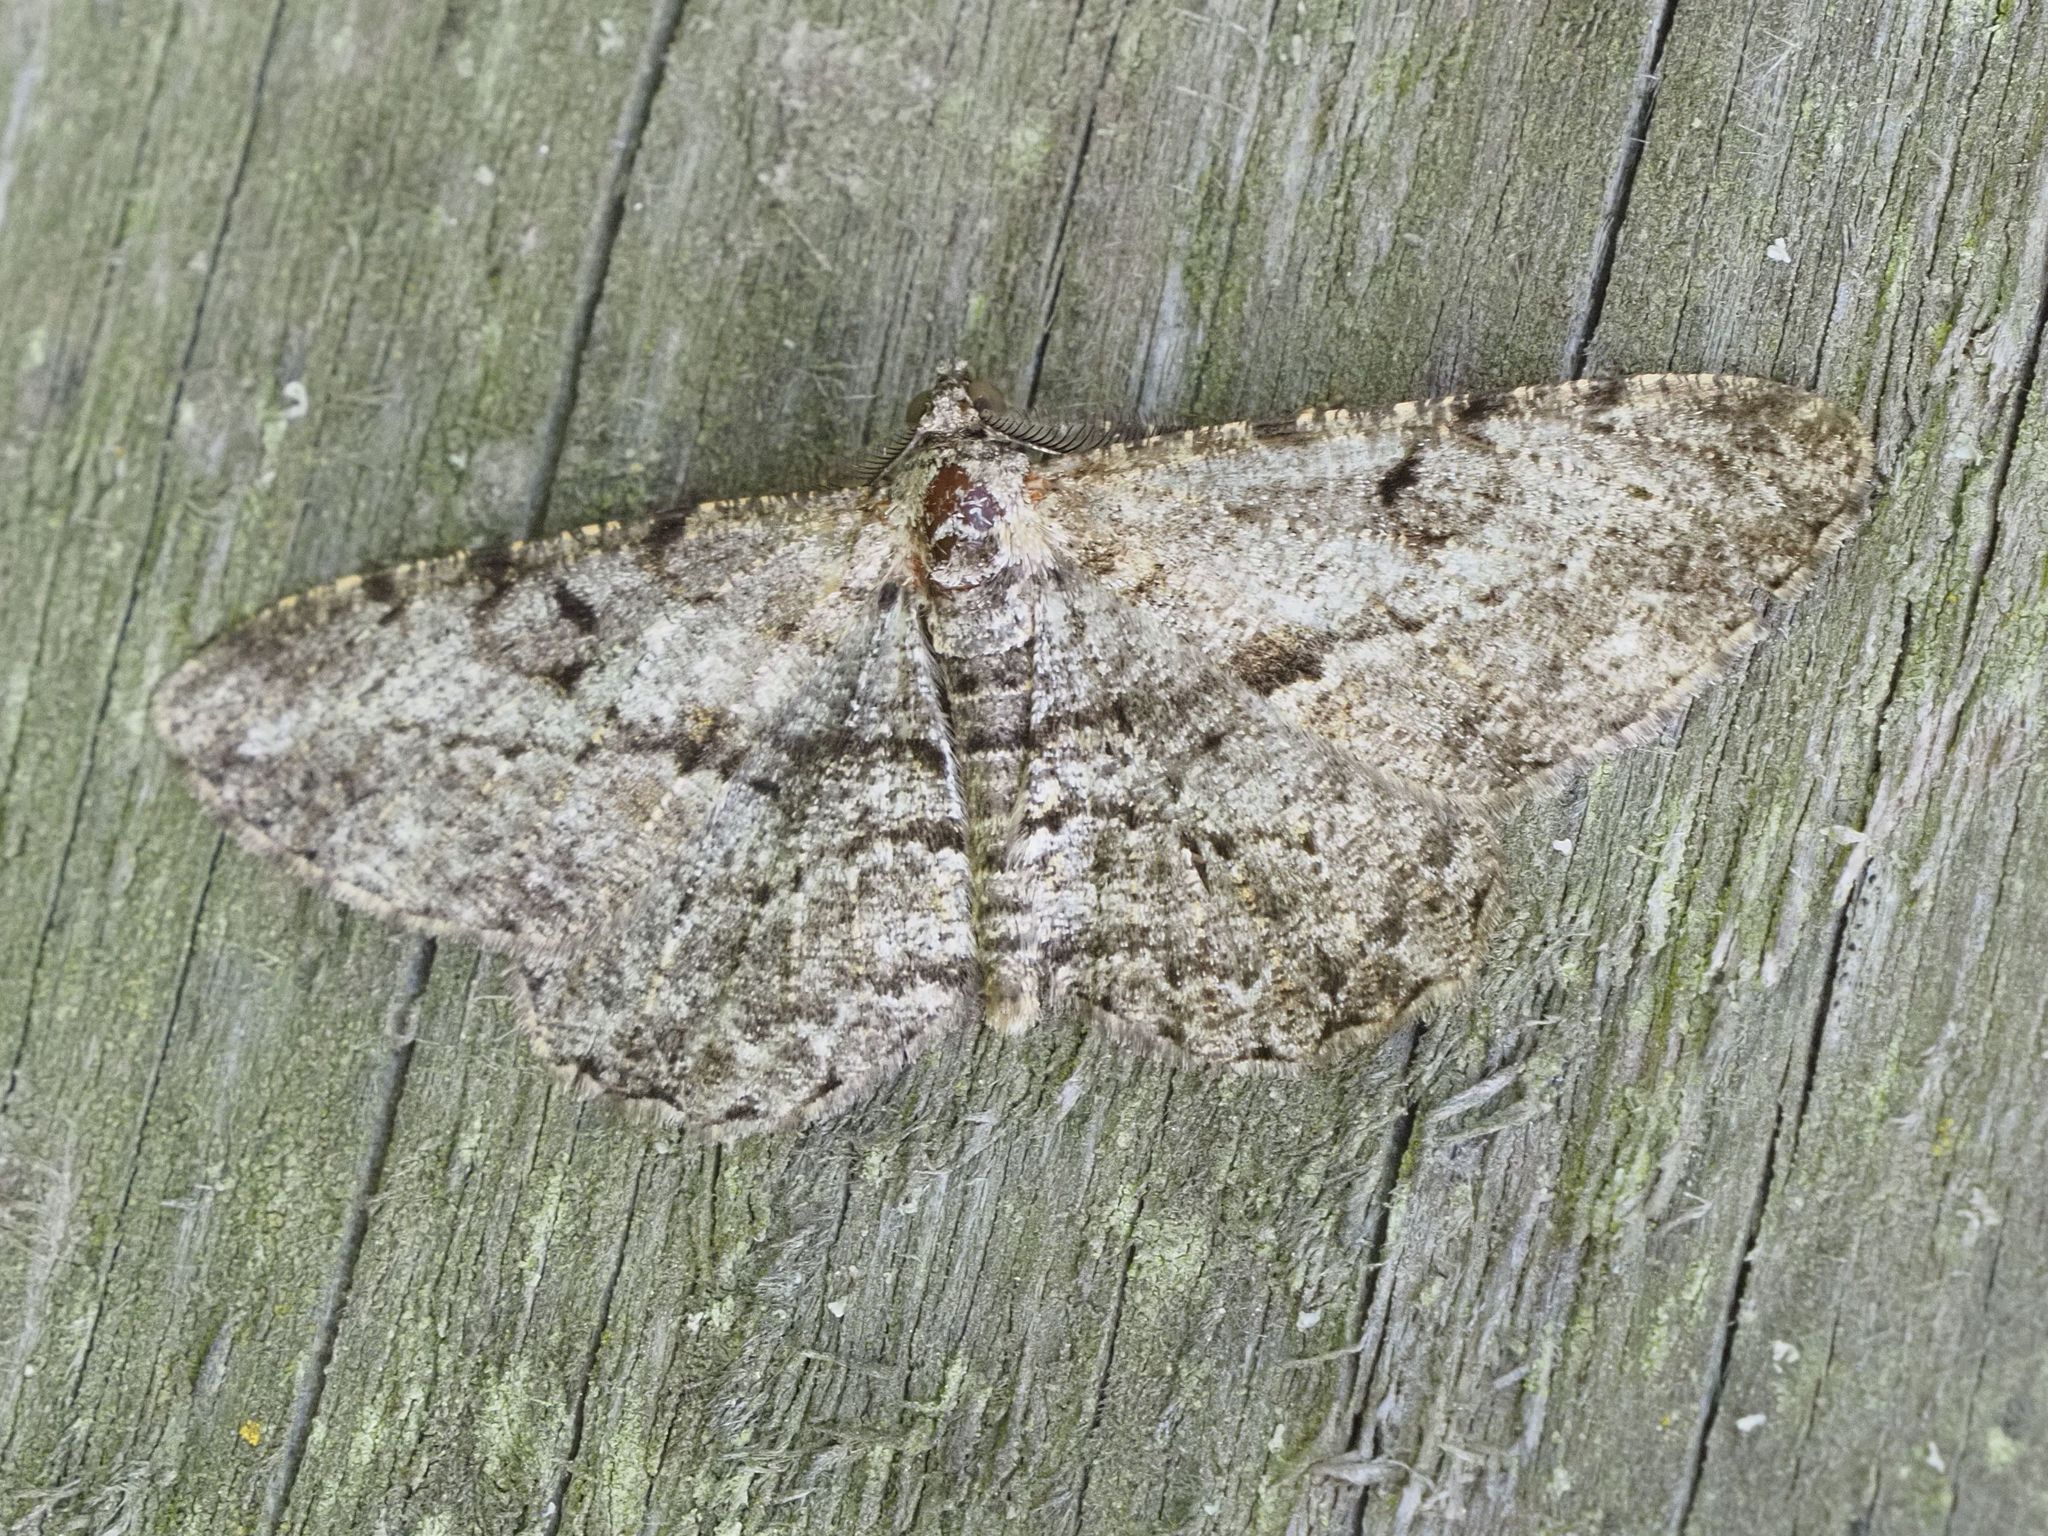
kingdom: Animalia
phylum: Arthropoda
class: Insecta
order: Lepidoptera
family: Geometridae
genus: Peribatodes
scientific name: Peribatodes rhomboidaria
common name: Willow beauty
